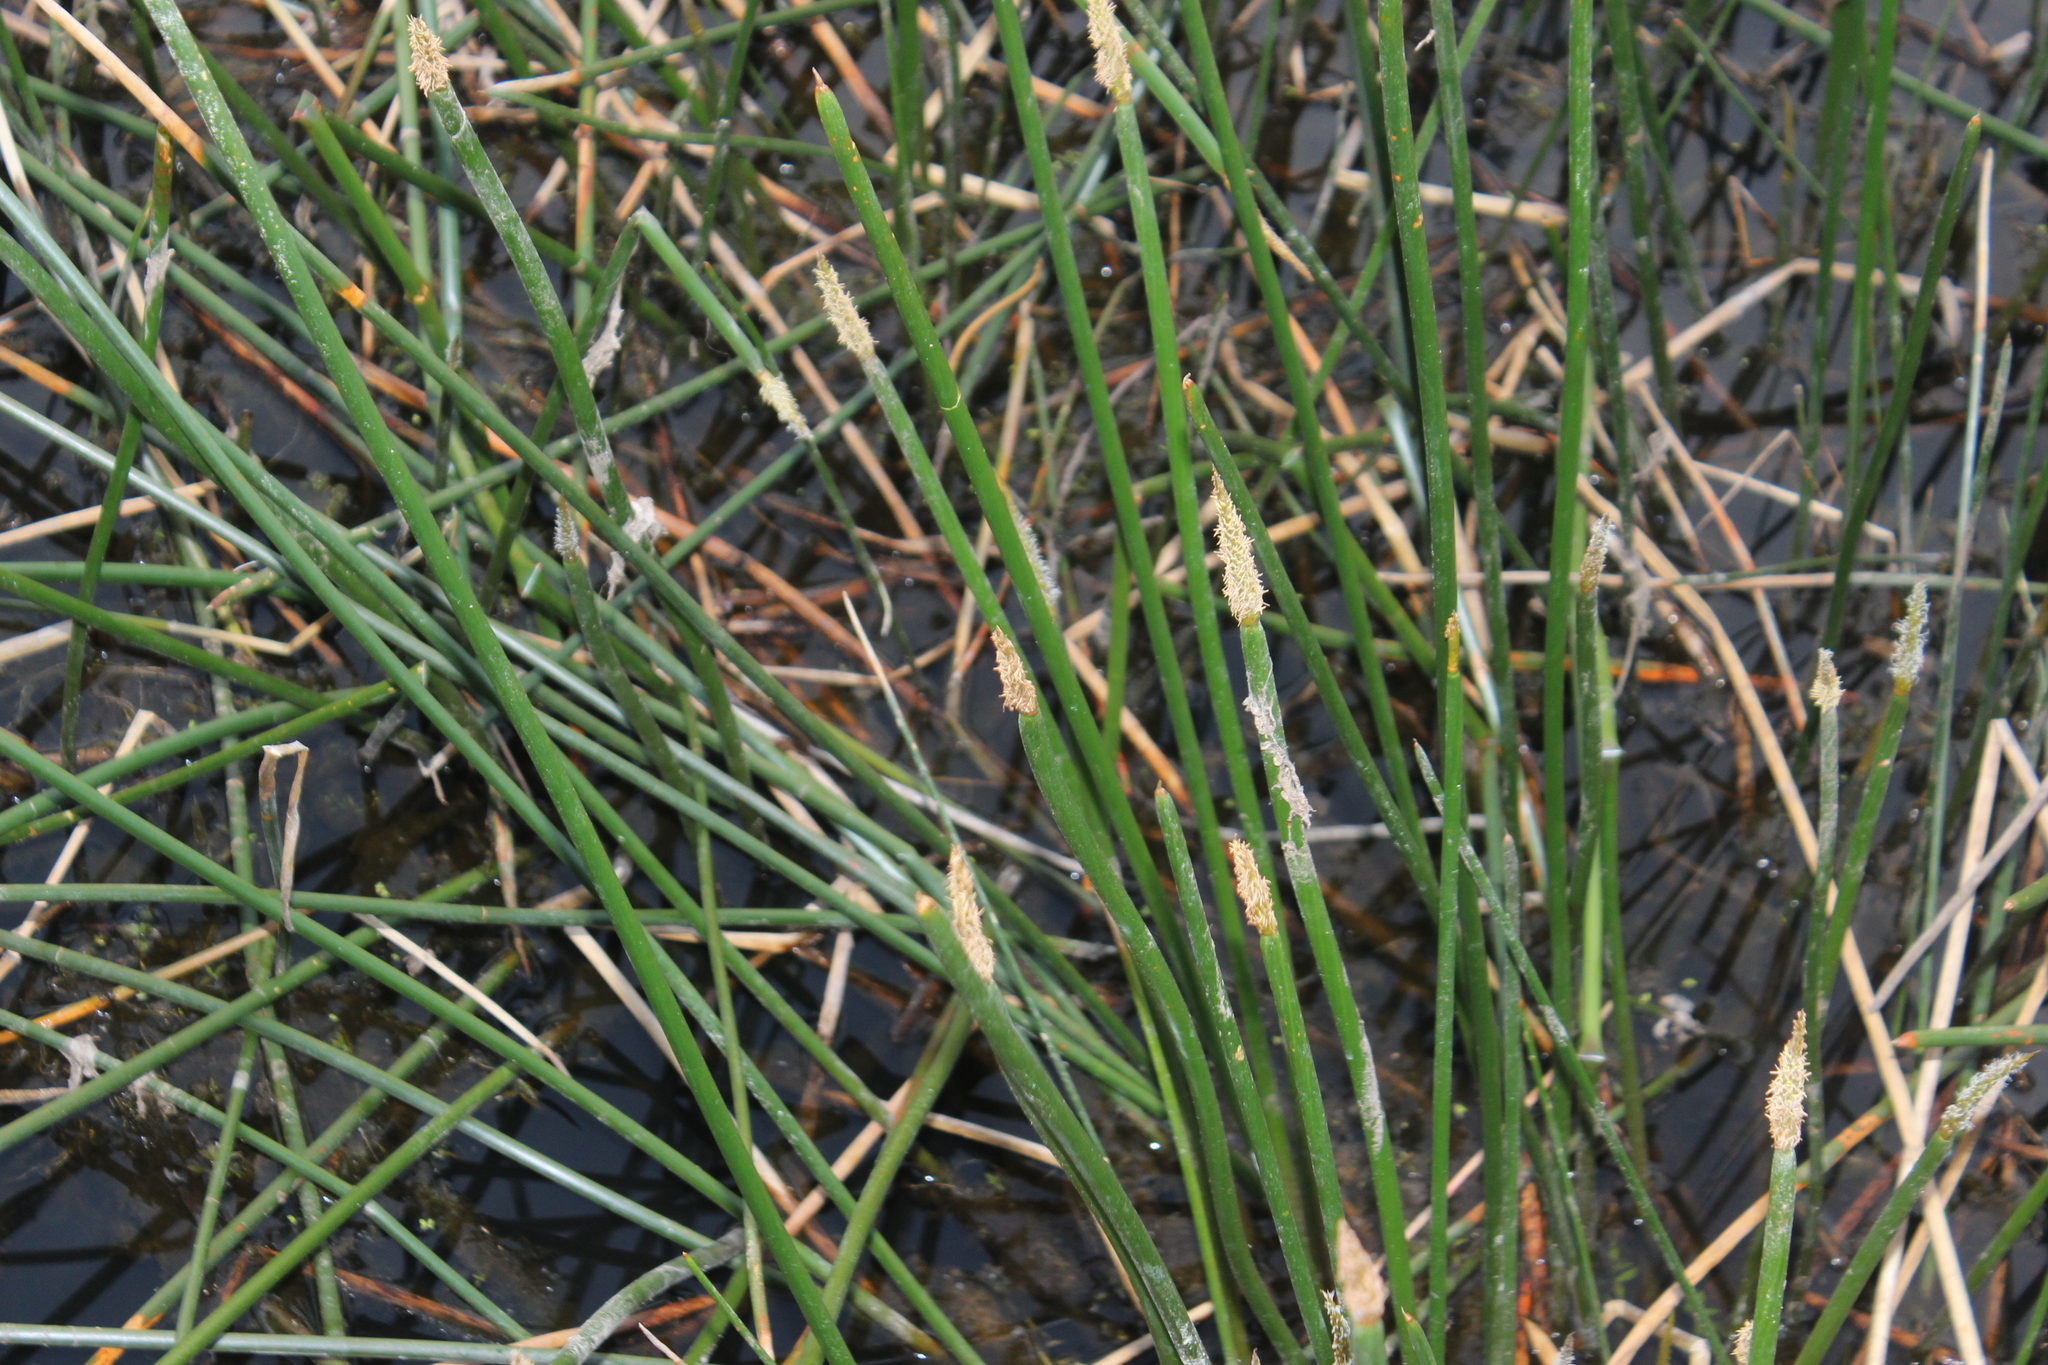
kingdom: Plantae
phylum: Tracheophyta
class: Liliopsida
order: Poales
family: Cyperaceae
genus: Eleocharis
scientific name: Eleocharis sphacelata
